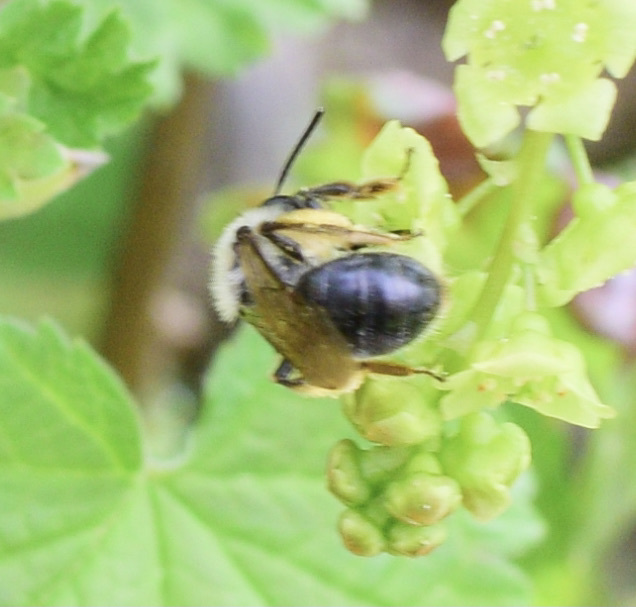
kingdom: Animalia
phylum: Arthropoda
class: Insecta
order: Hymenoptera
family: Andrenidae
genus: Andrena
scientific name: Andrena rufosignata
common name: Brown-fovea miner
